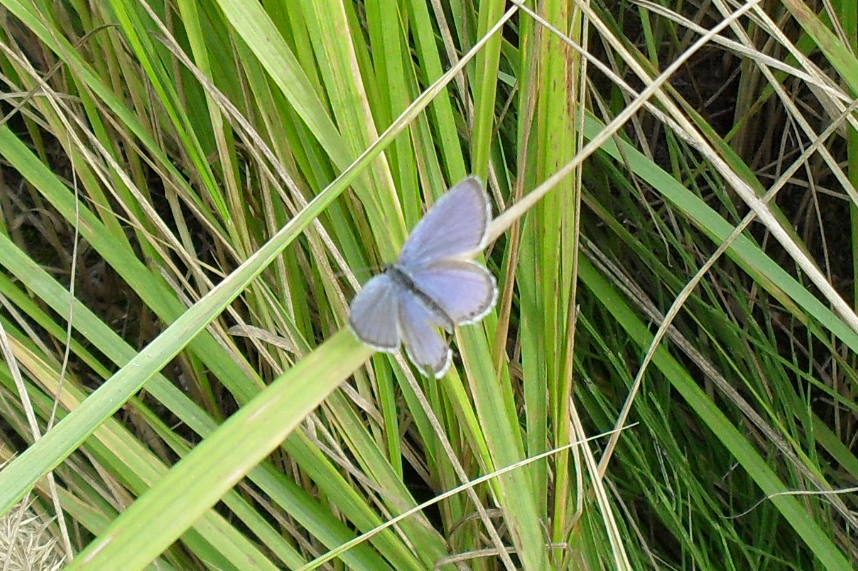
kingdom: Animalia
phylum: Arthropoda
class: Insecta
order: Lepidoptera
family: Lycaenidae
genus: Elkalyce
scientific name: Elkalyce argiades
